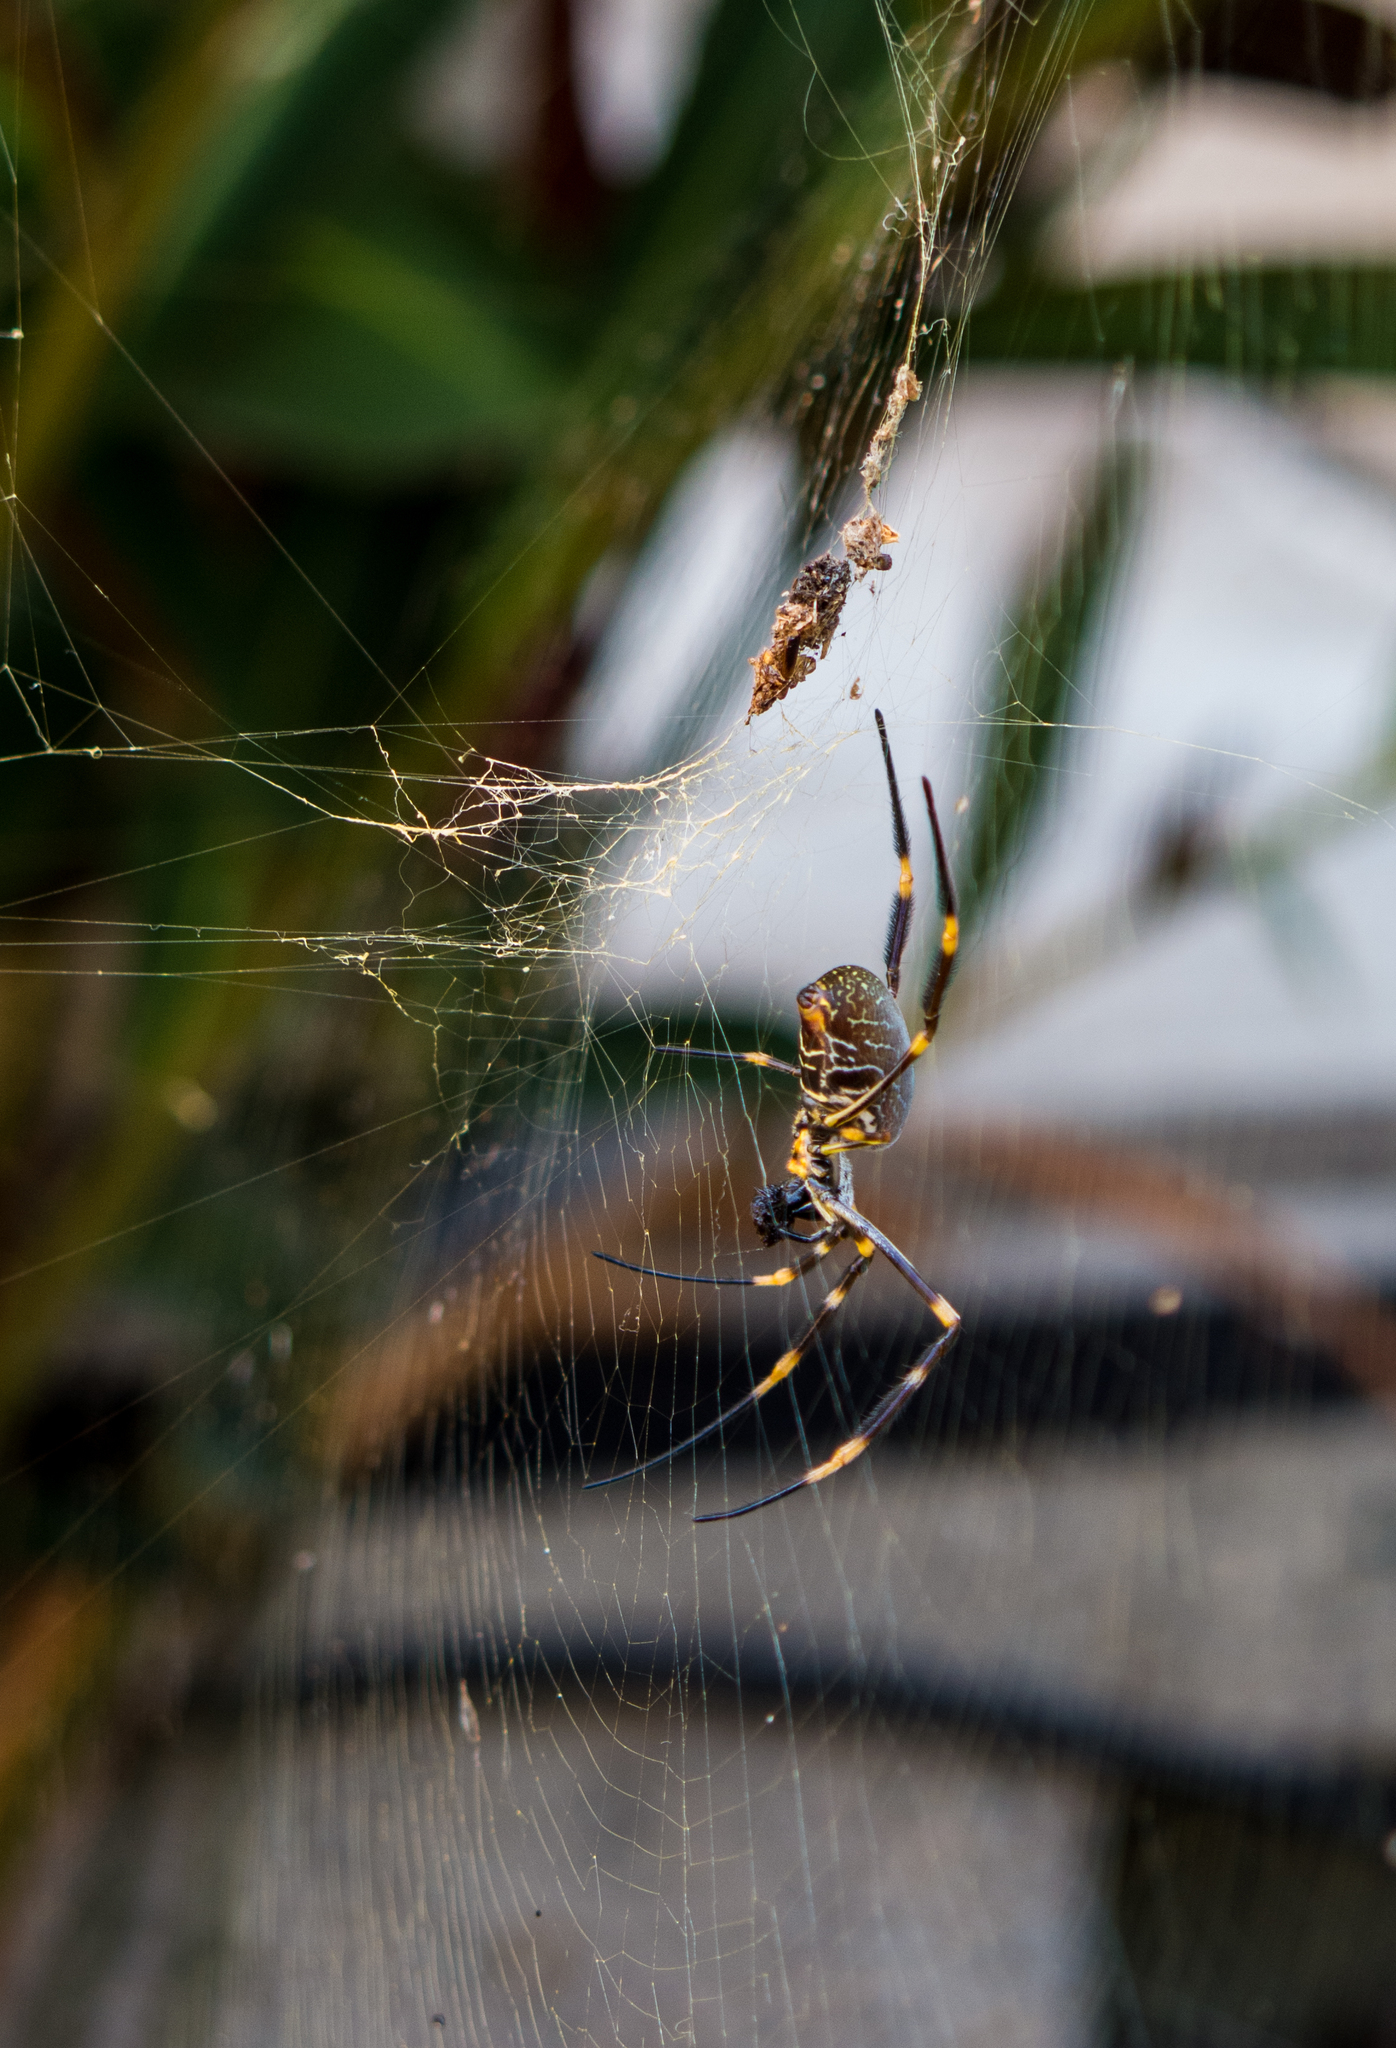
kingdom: Animalia
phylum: Arthropoda
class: Arachnida
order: Araneae
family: Araneidae
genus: Trichonephila
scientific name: Trichonephila plumipes
